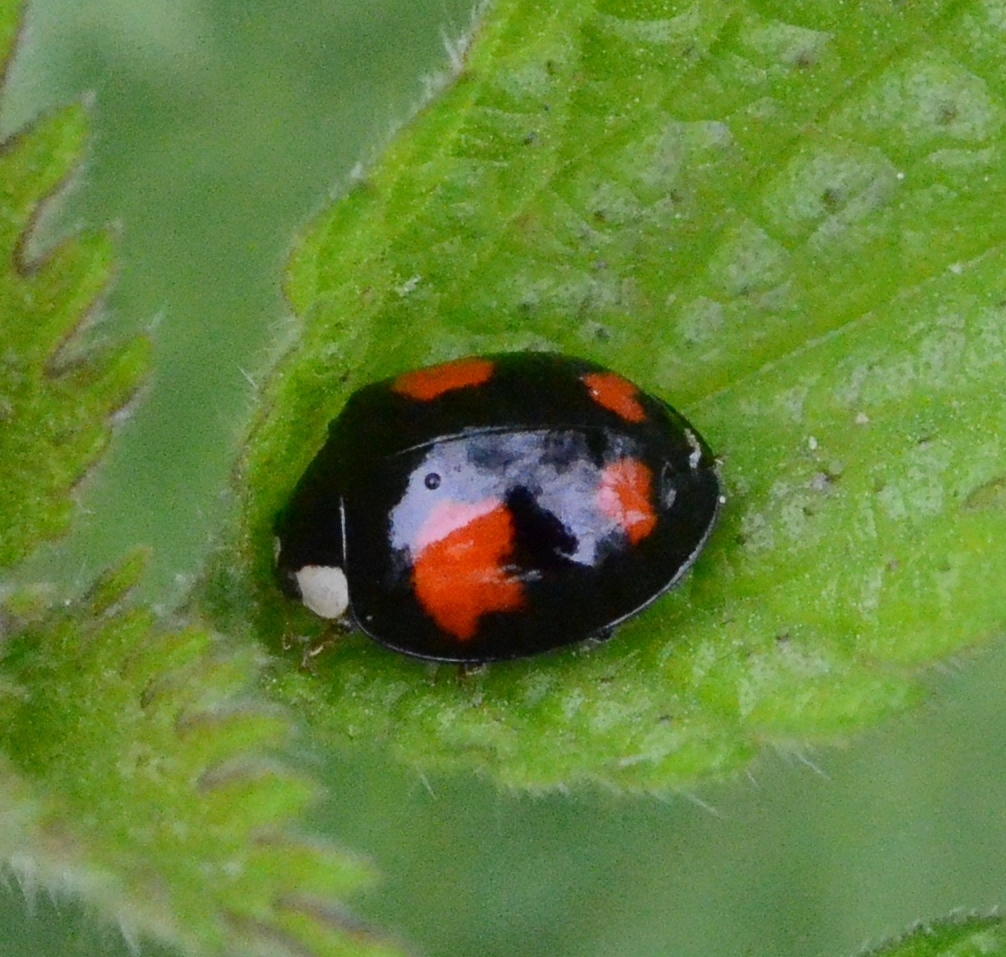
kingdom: Animalia
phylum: Arthropoda
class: Insecta
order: Coleoptera
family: Coccinellidae
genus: Harmonia
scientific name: Harmonia axyridis
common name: Harlequin ladybird
